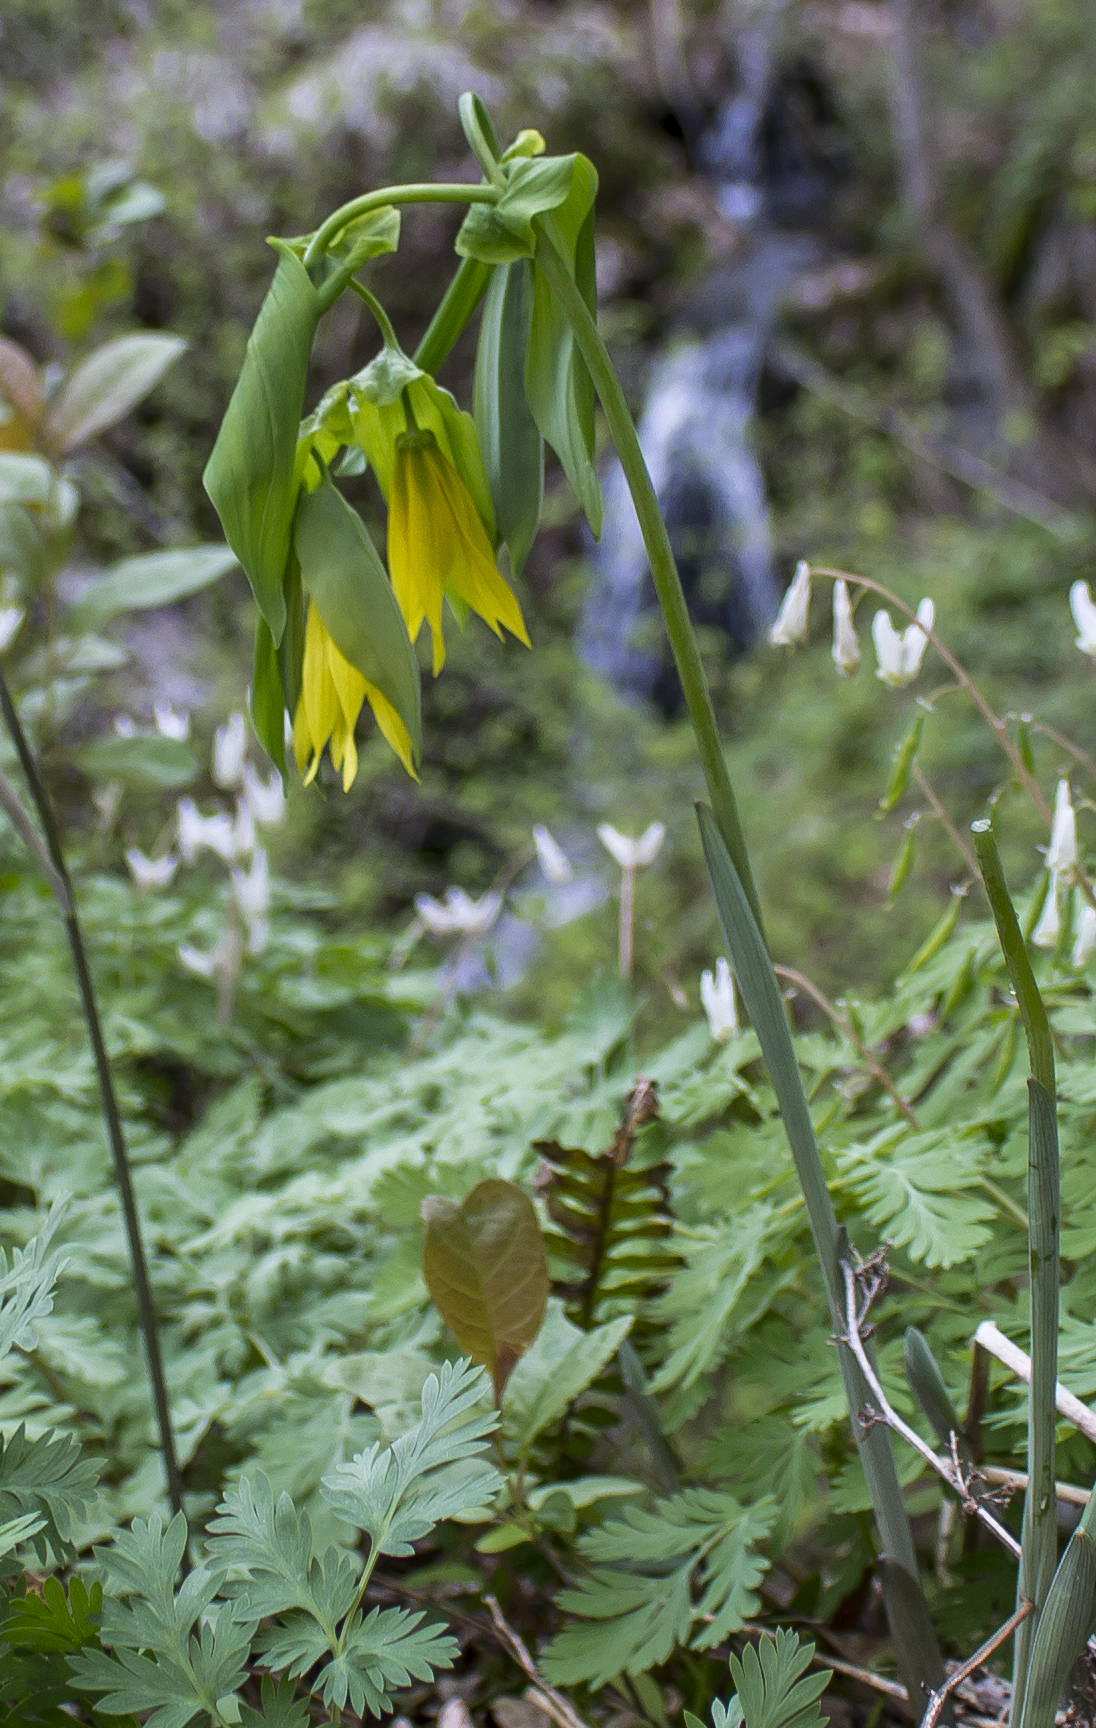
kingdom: Plantae
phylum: Tracheophyta
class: Liliopsida
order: Liliales
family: Colchicaceae
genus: Uvularia
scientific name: Uvularia grandiflora
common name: Bellwort
